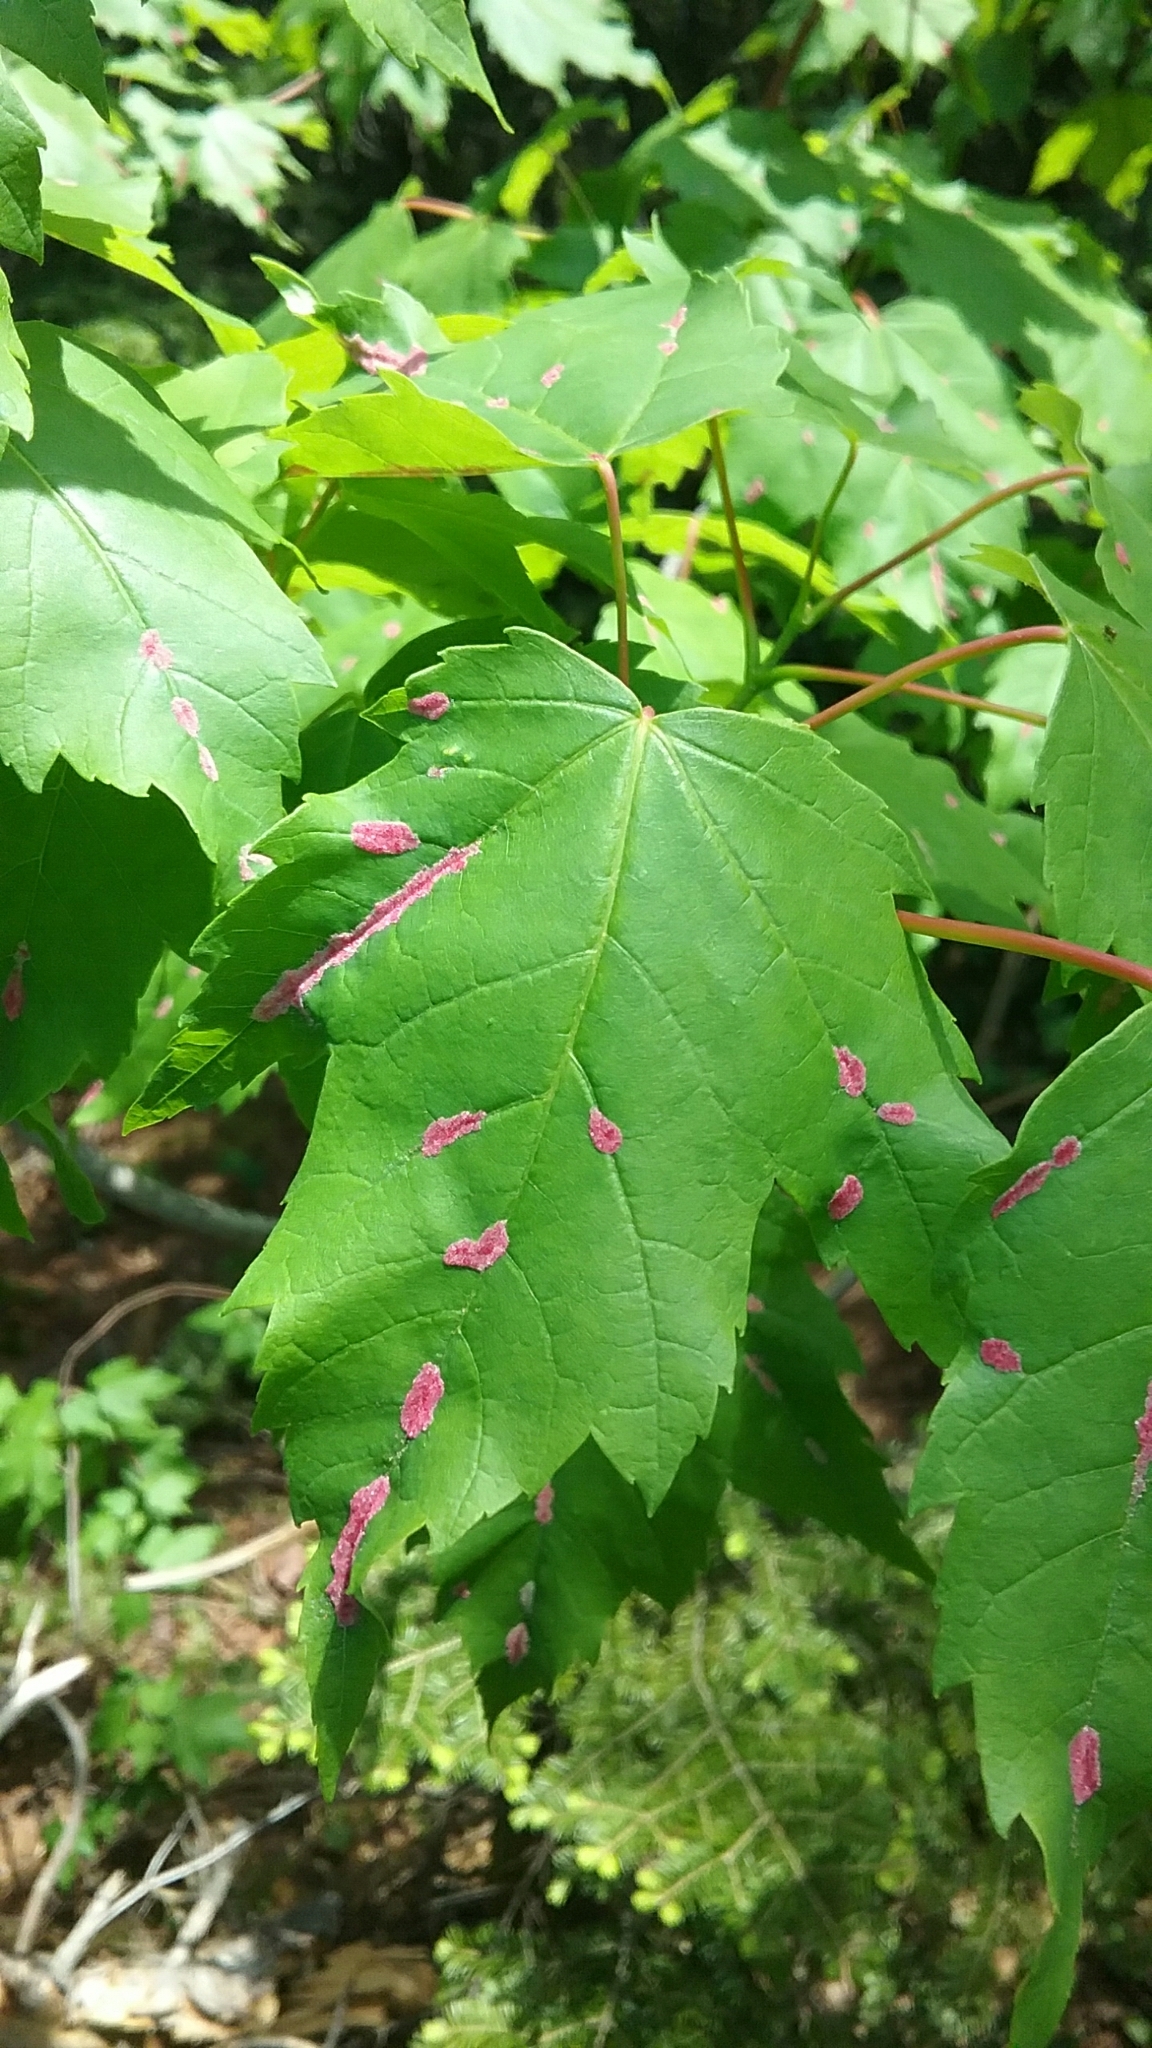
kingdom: Animalia
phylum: Arthropoda
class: Arachnida
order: Trombidiformes
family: Eriophyidae
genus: Aculus
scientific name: Aculus
